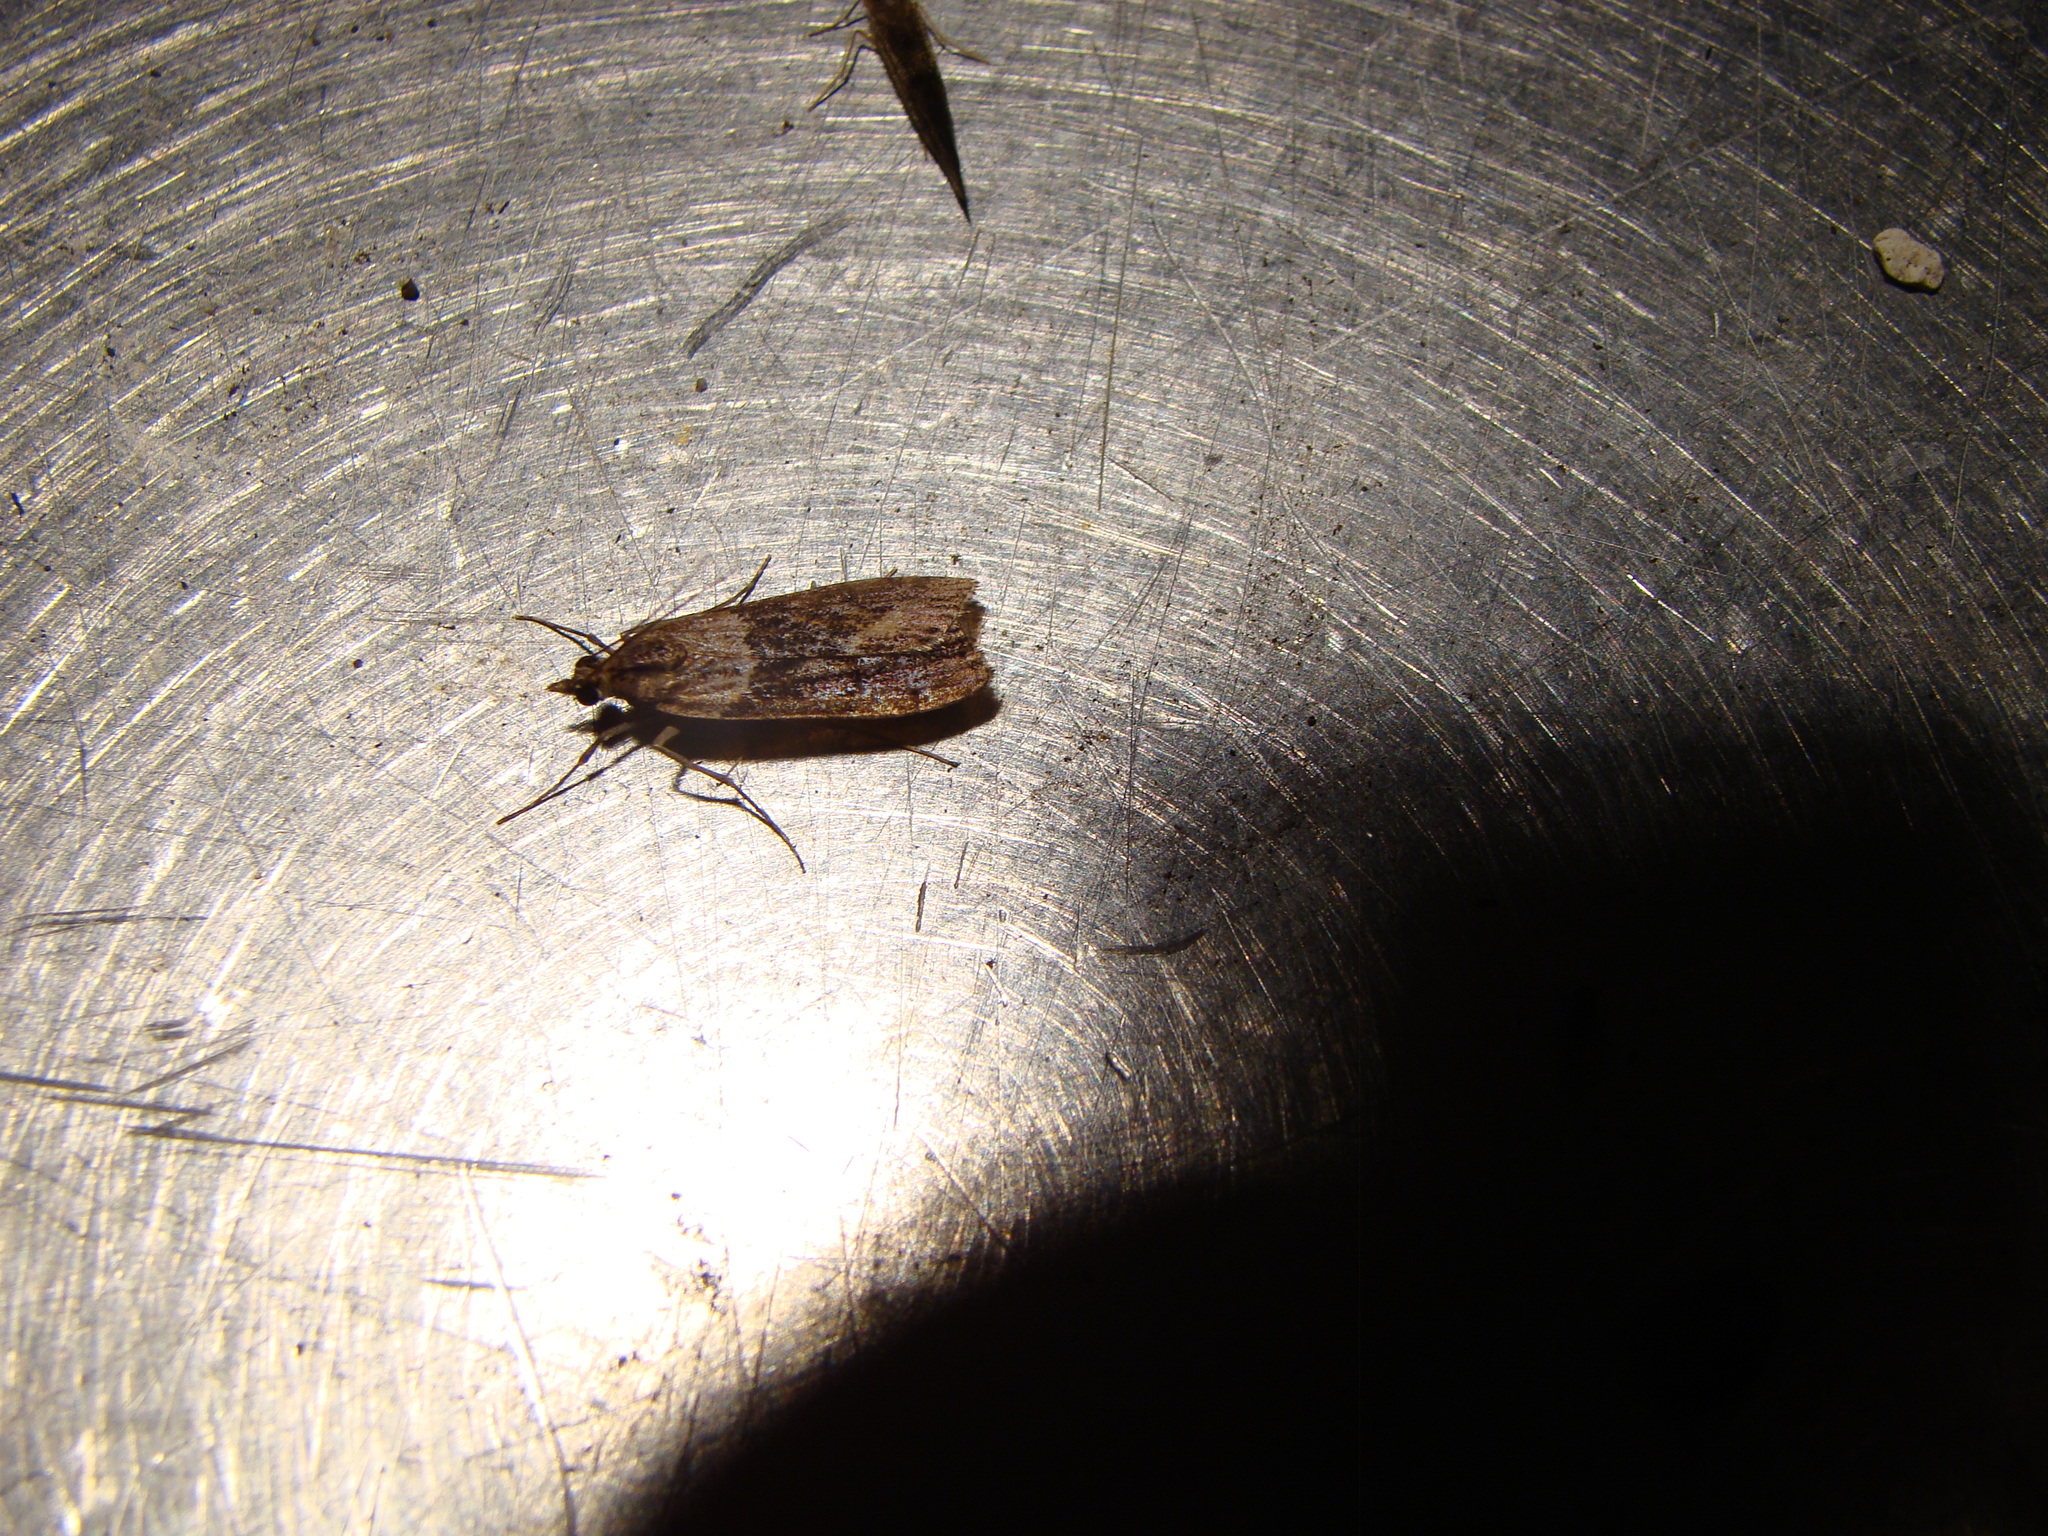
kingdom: Animalia
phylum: Arthropoda
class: Insecta
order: Lepidoptera
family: Crambidae
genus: Eudonia
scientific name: Eudonia submarginalis
